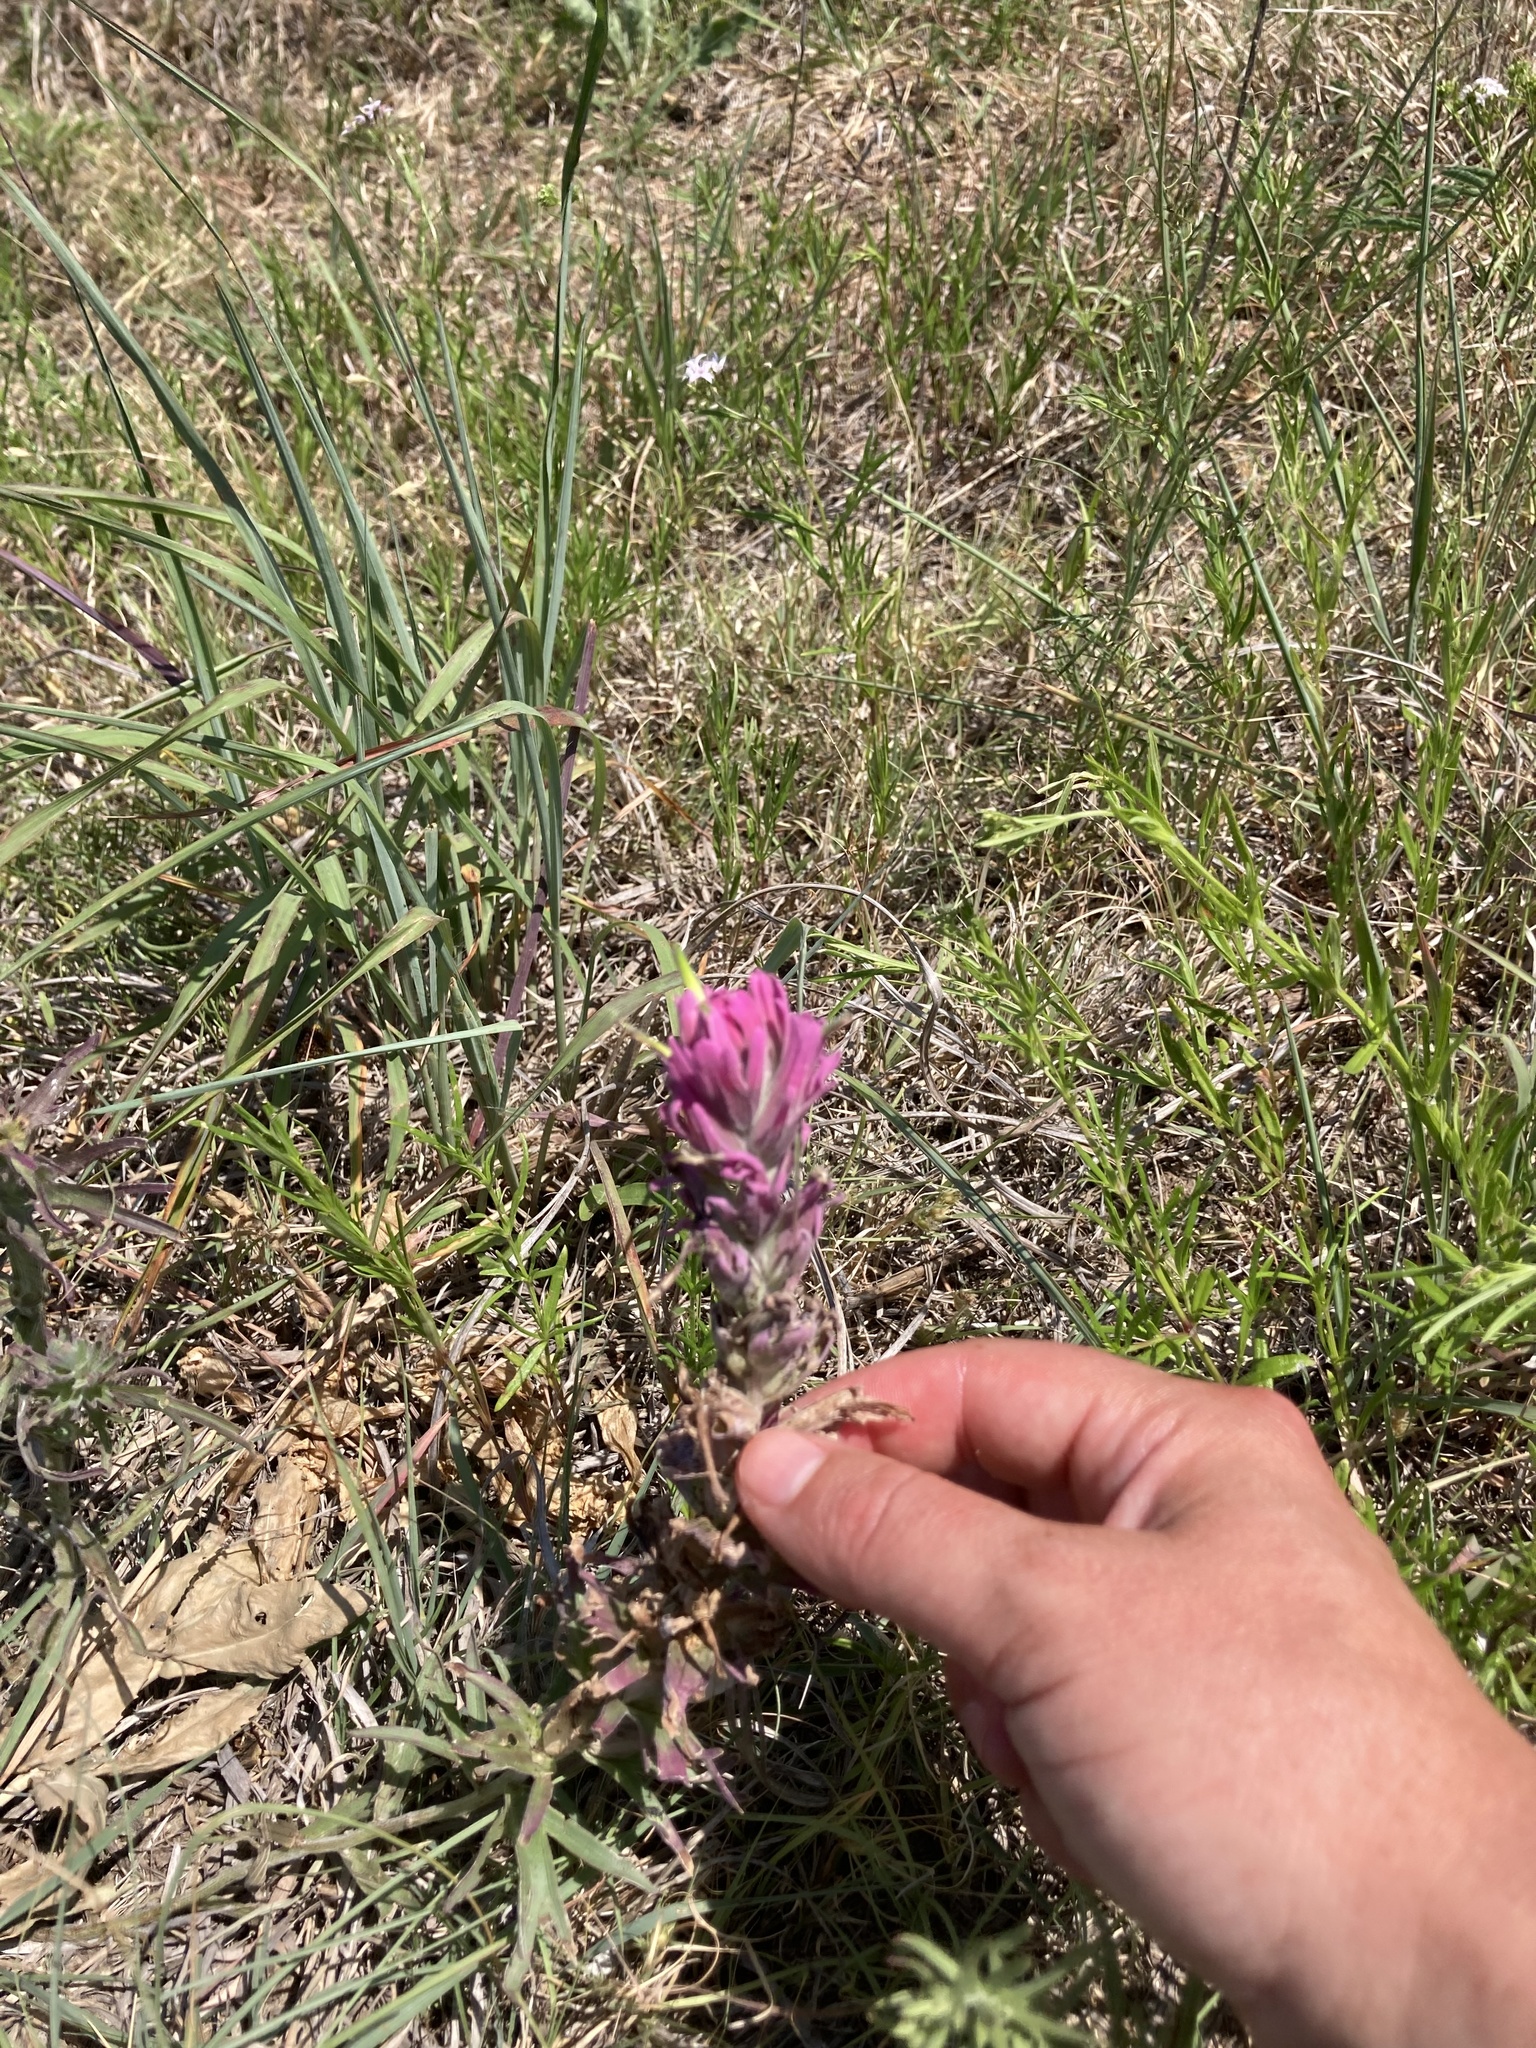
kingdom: Plantae
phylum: Tracheophyta
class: Magnoliopsida
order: Lamiales
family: Orobanchaceae
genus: Castilleja
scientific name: Castilleja purpurea
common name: Plains paintbrush
